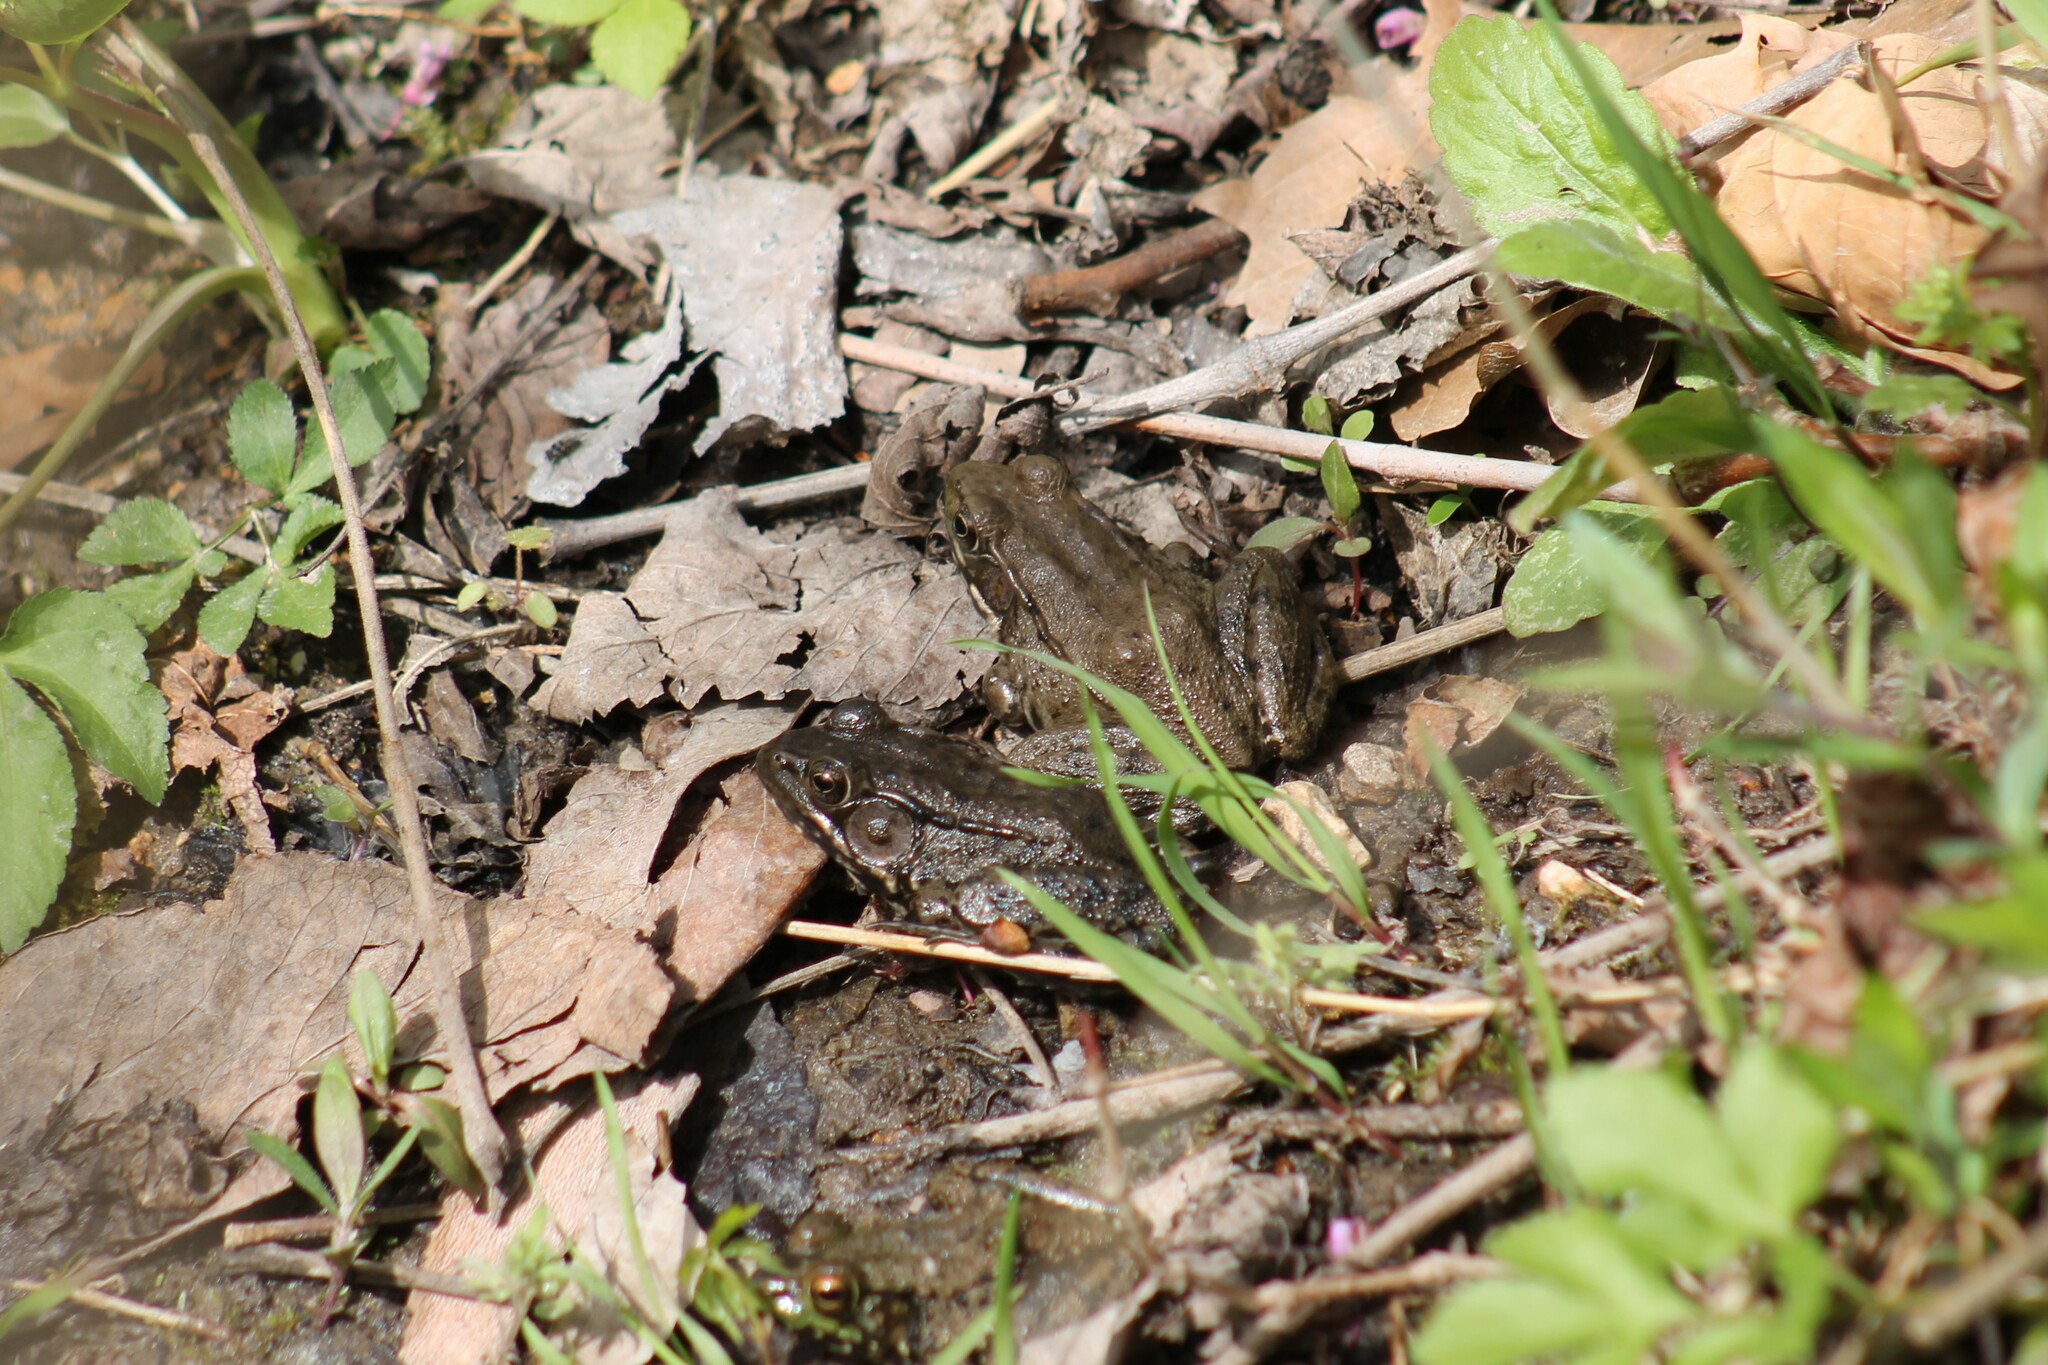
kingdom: Animalia
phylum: Chordata
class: Amphibia
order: Anura
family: Ranidae
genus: Lithobates
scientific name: Lithobates clamitans
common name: Green frog
